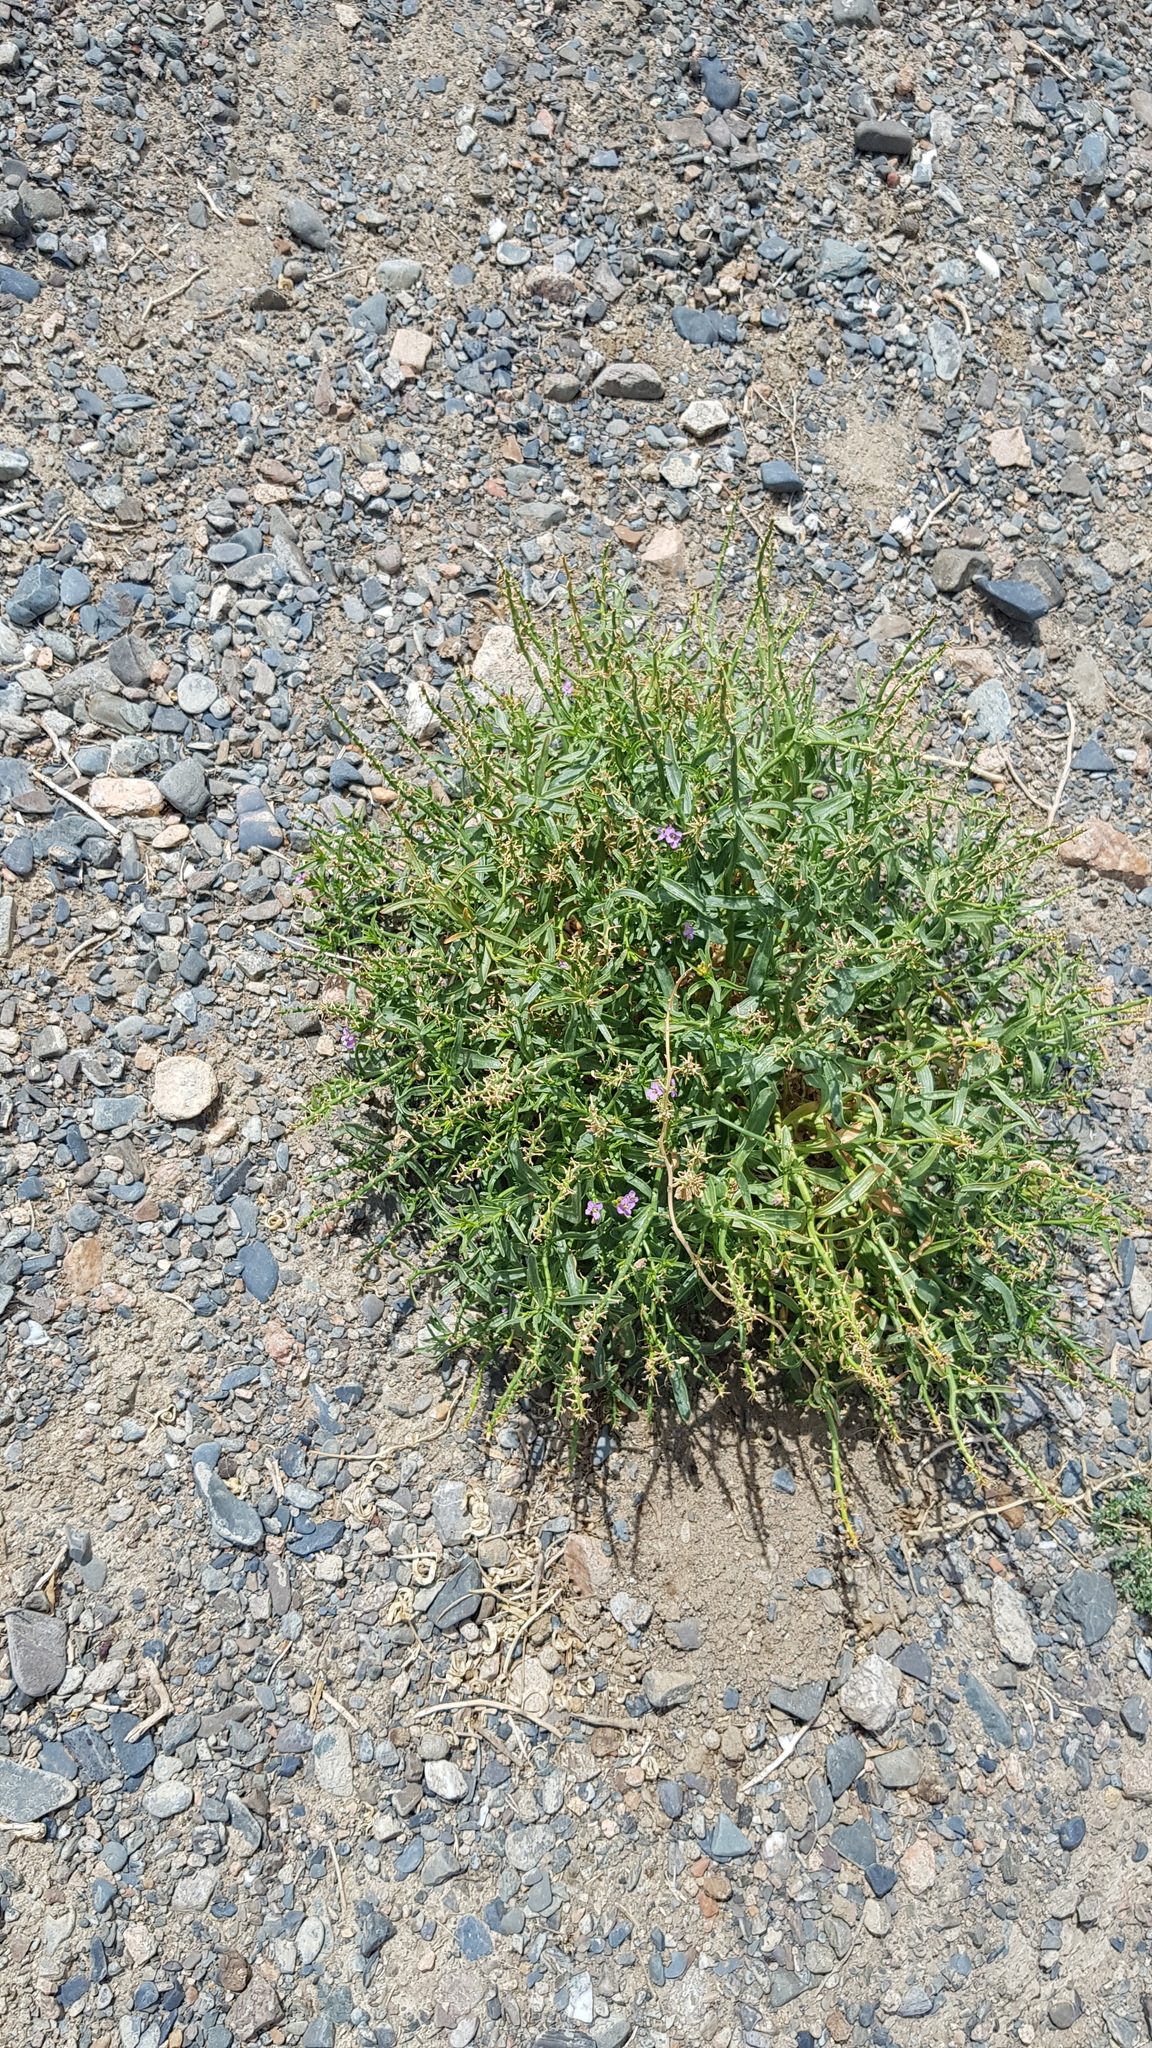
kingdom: Plantae
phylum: Tracheophyta
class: Magnoliopsida
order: Brassicales
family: Brassicaceae
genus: Dontostemon
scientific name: Dontostemon crassifolius
